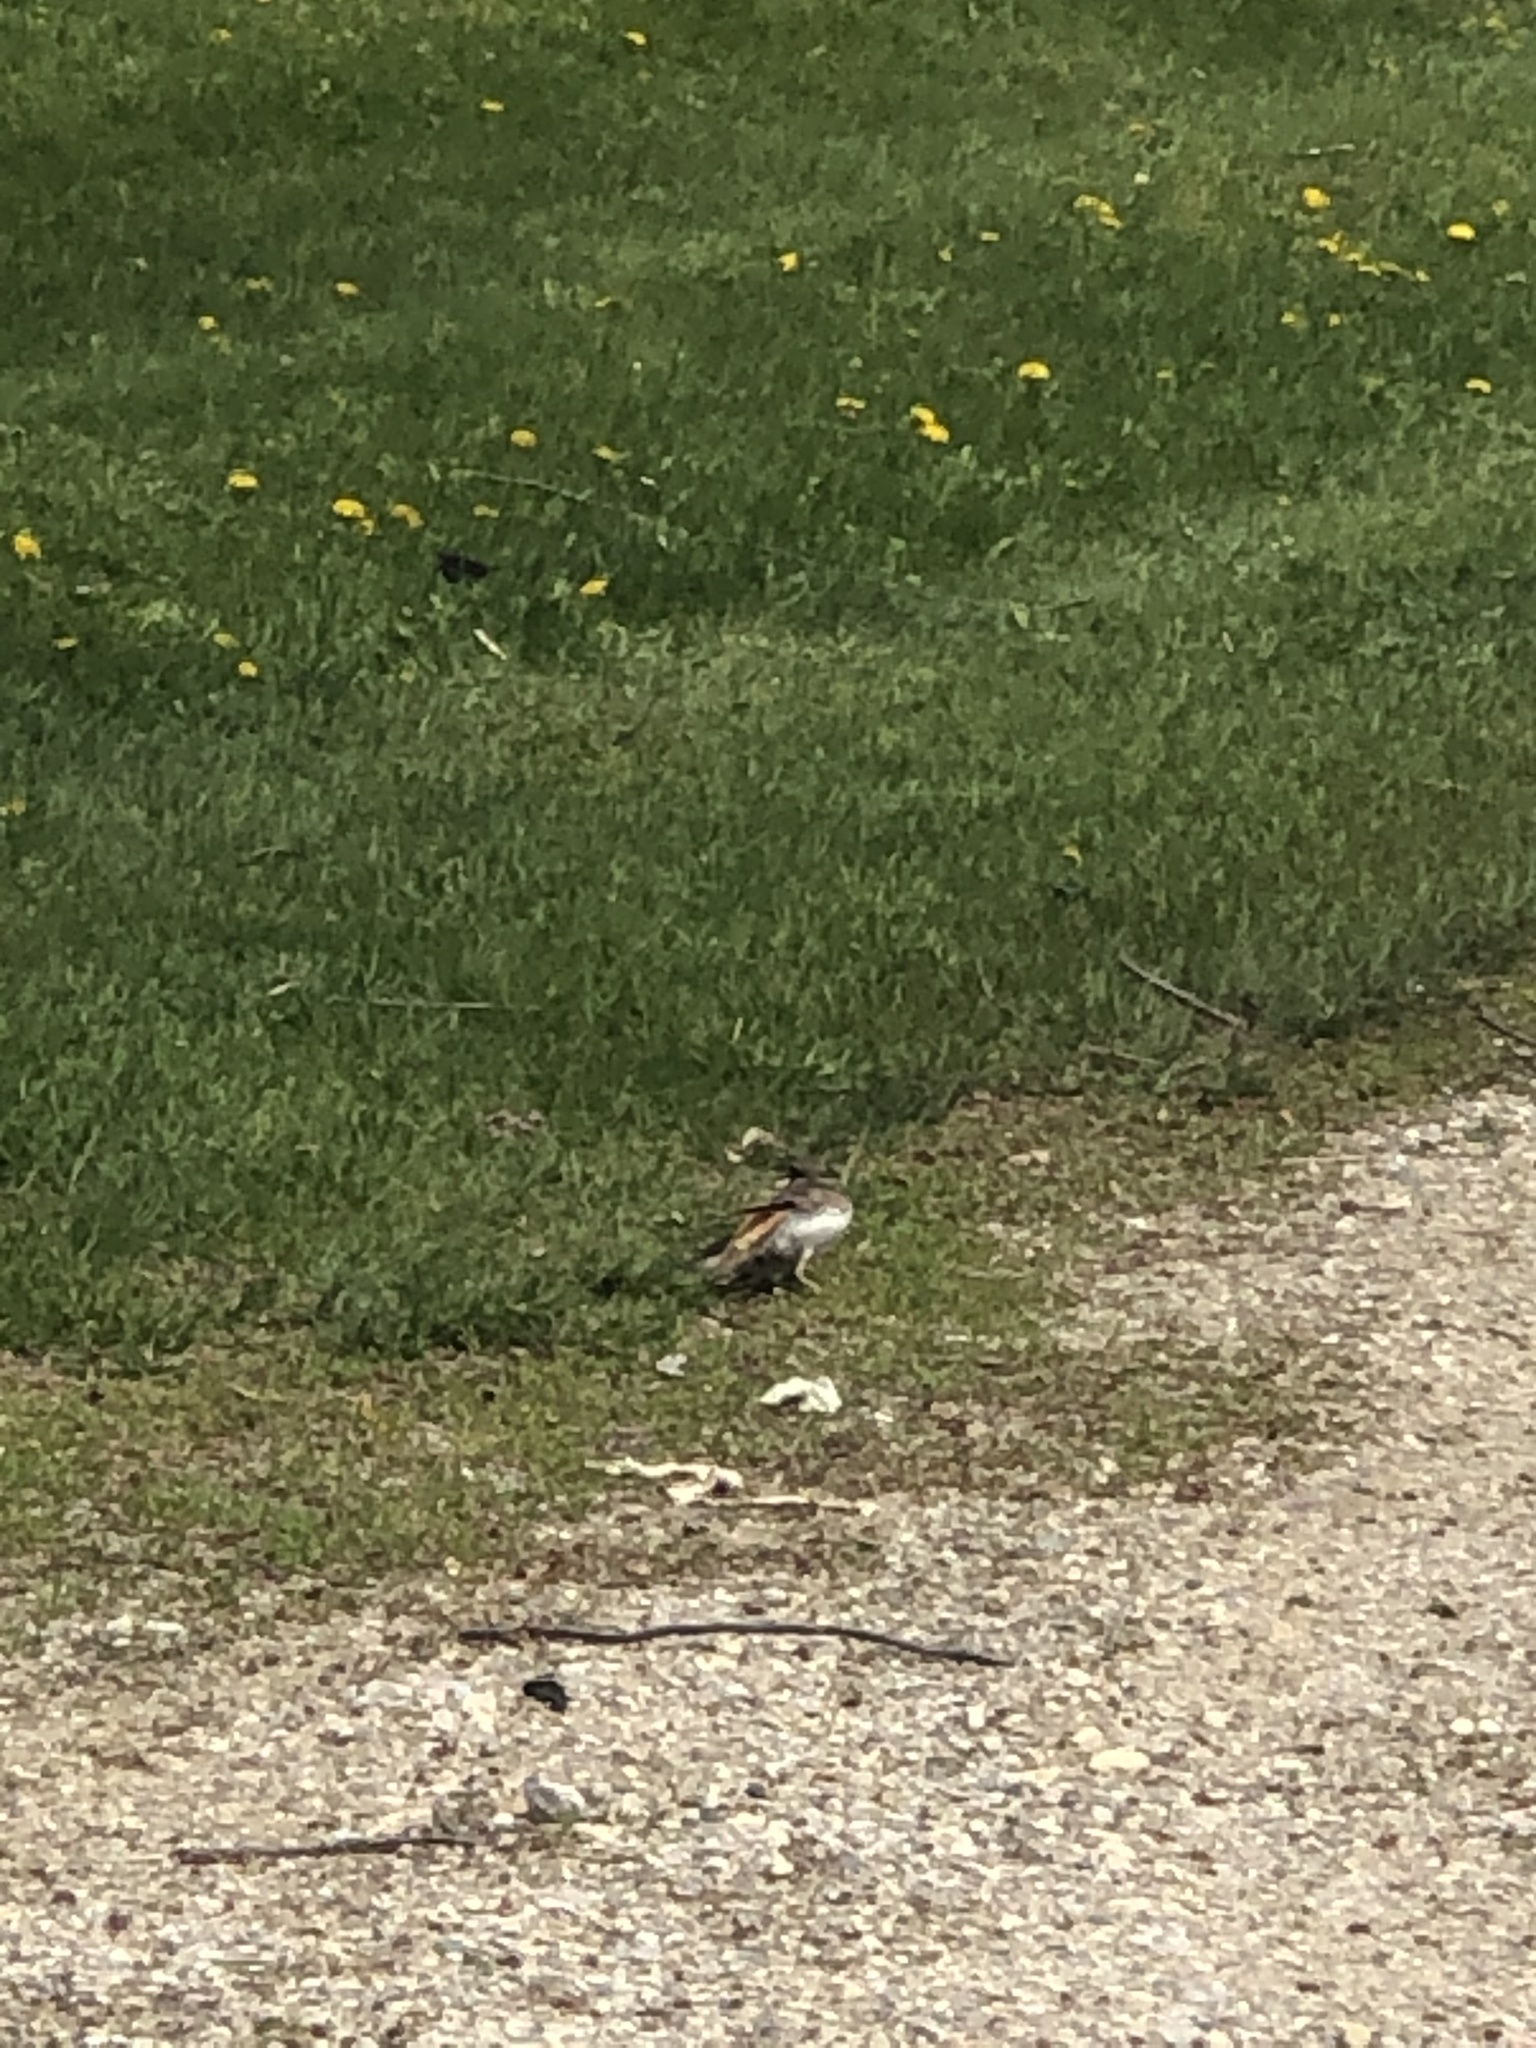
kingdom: Animalia
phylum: Chordata
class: Aves
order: Charadriiformes
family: Charadriidae
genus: Charadrius
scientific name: Charadrius vociferus
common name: Killdeer
